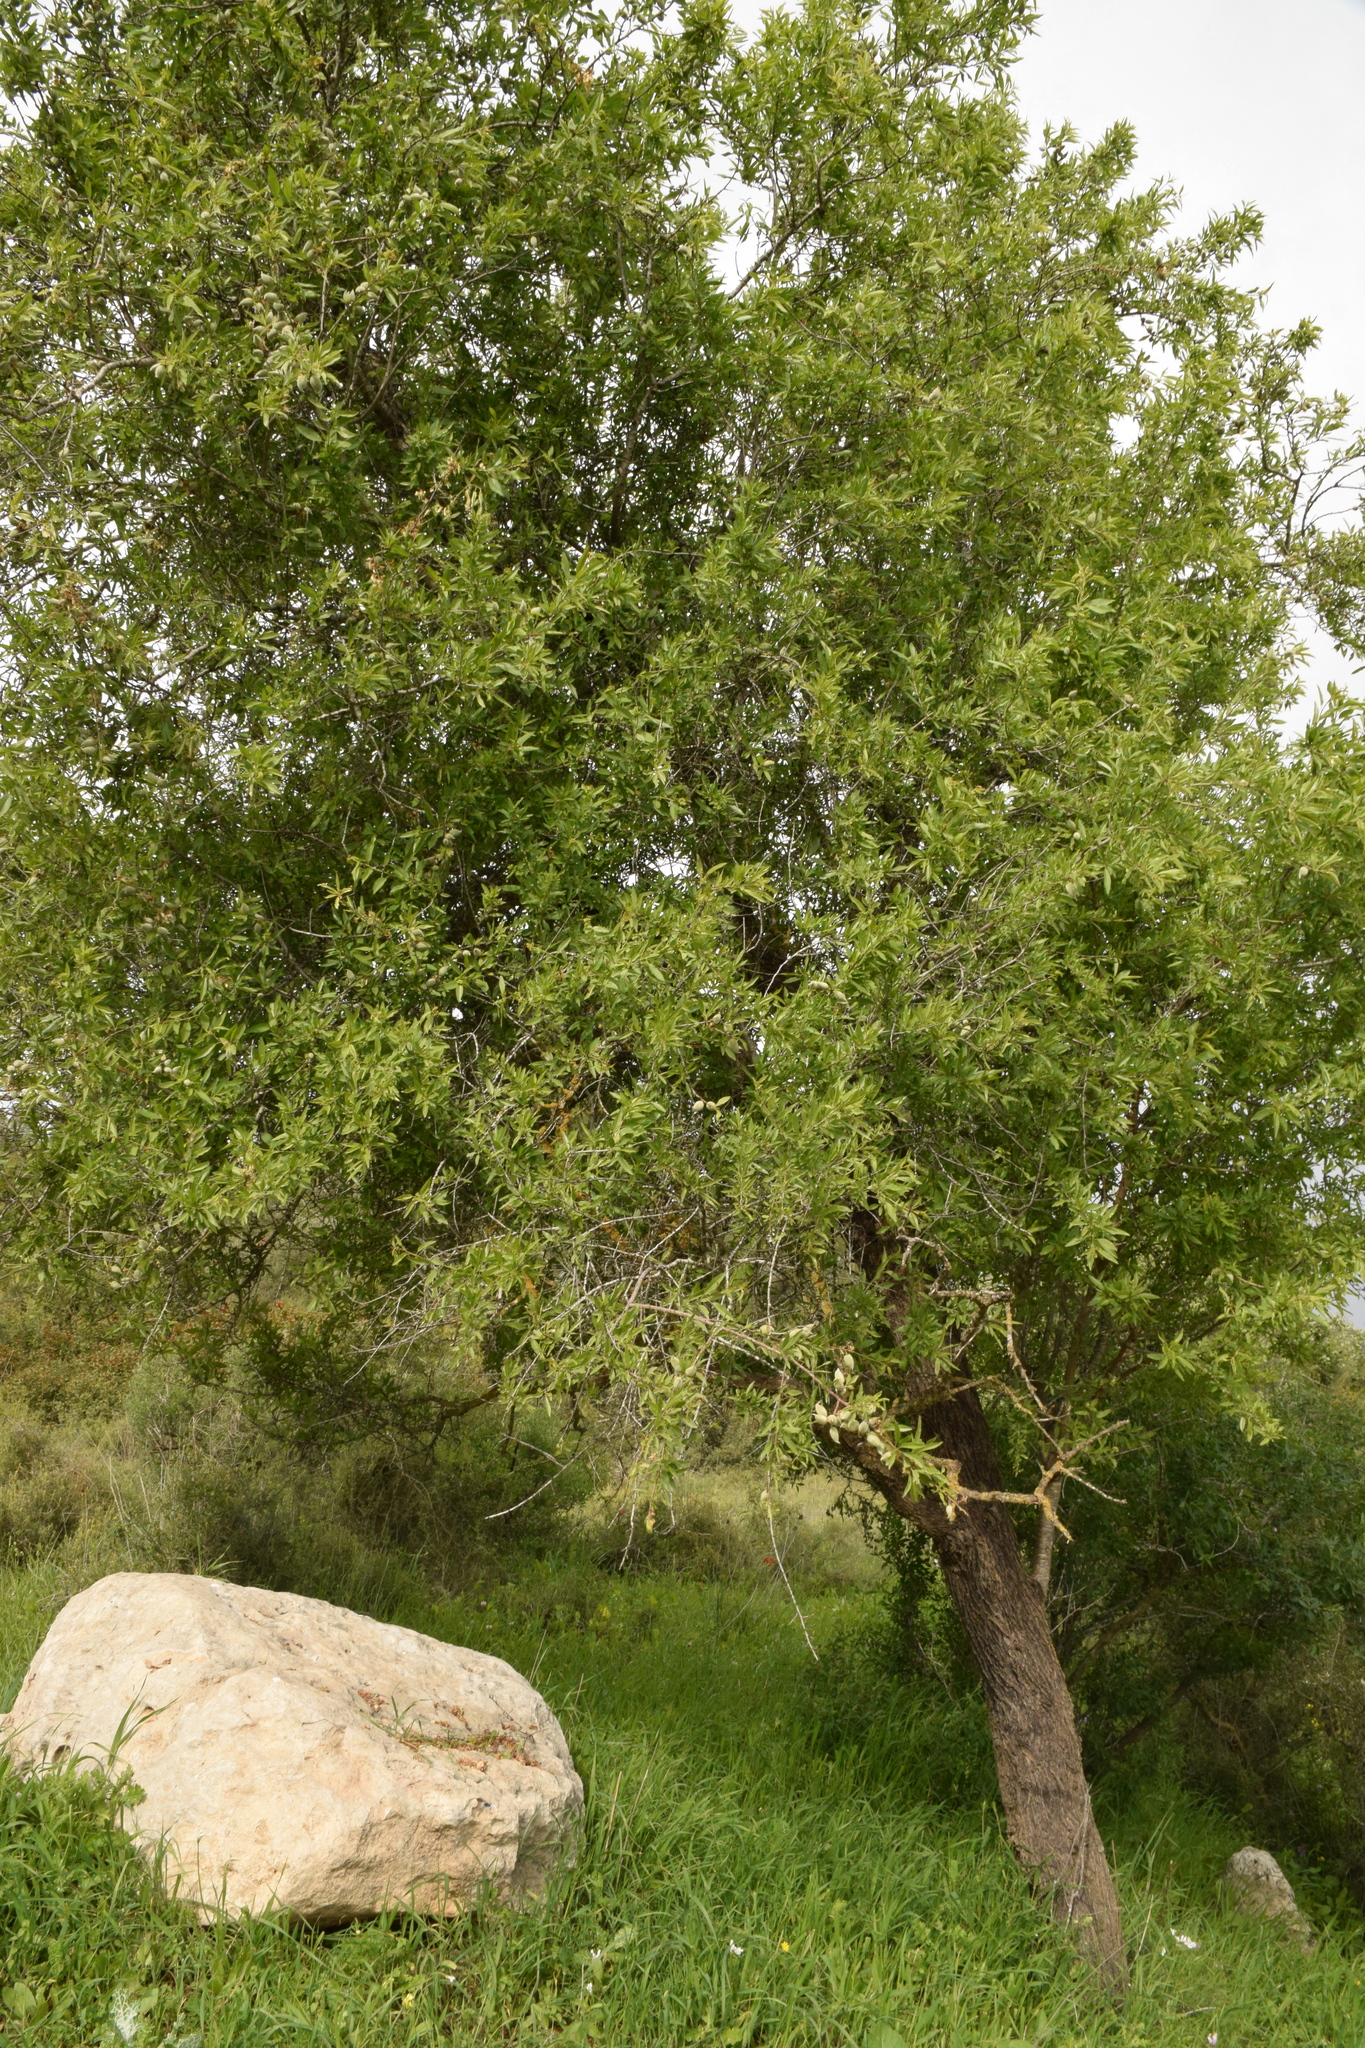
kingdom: Plantae
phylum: Tracheophyta
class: Magnoliopsida
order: Rosales
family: Rosaceae
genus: Prunus
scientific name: Prunus amygdalus
